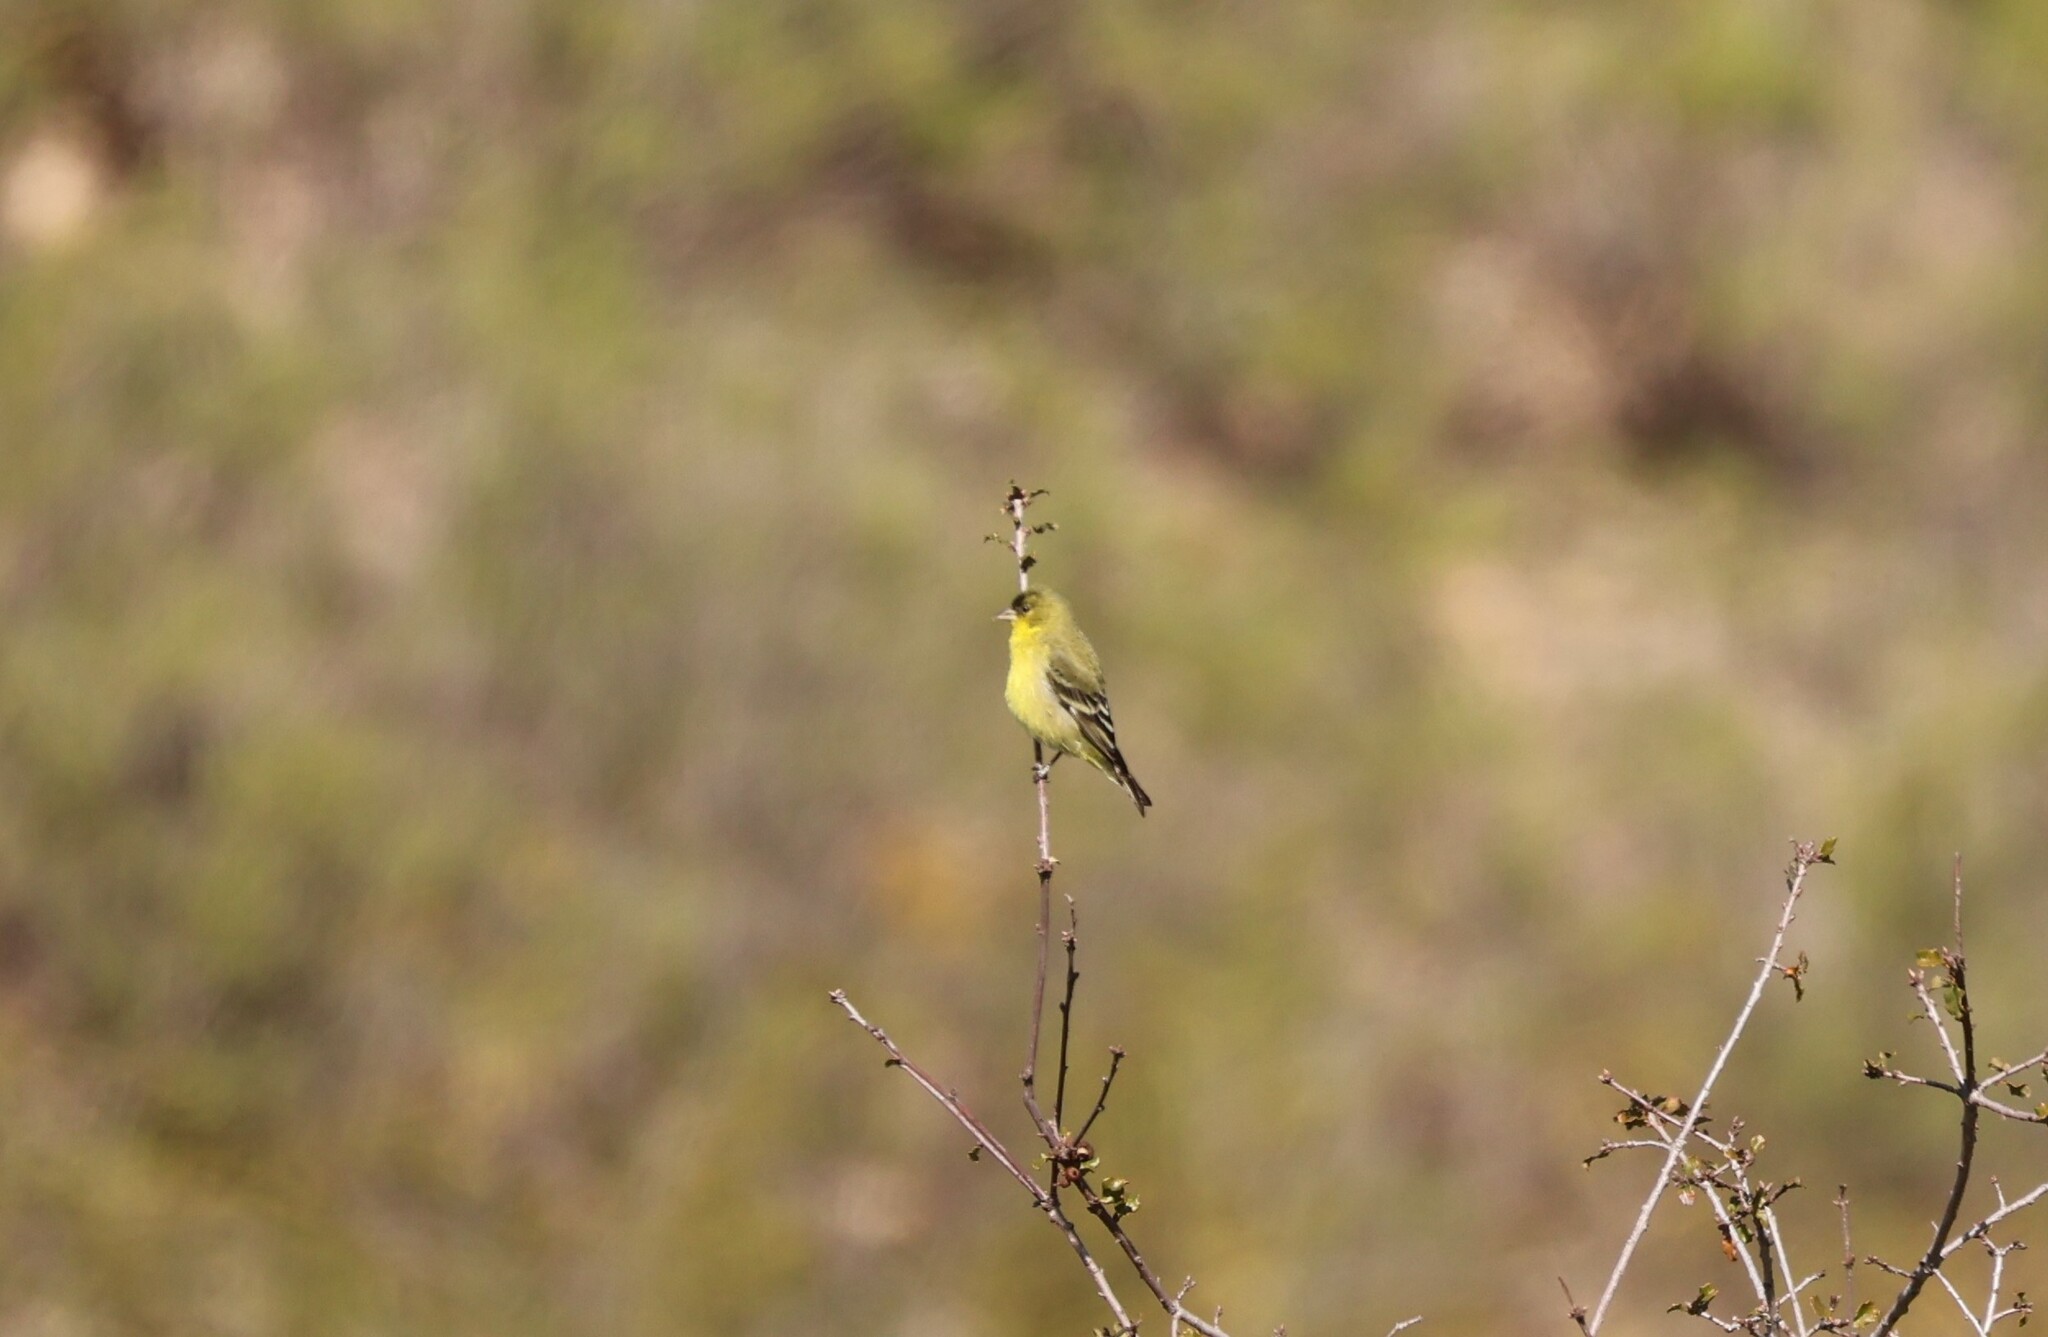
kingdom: Animalia
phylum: Chordata
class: Aves
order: Passeriformes
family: Fringillidae
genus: Spinus
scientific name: Spinus psaltria
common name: Lesser goldfinch
